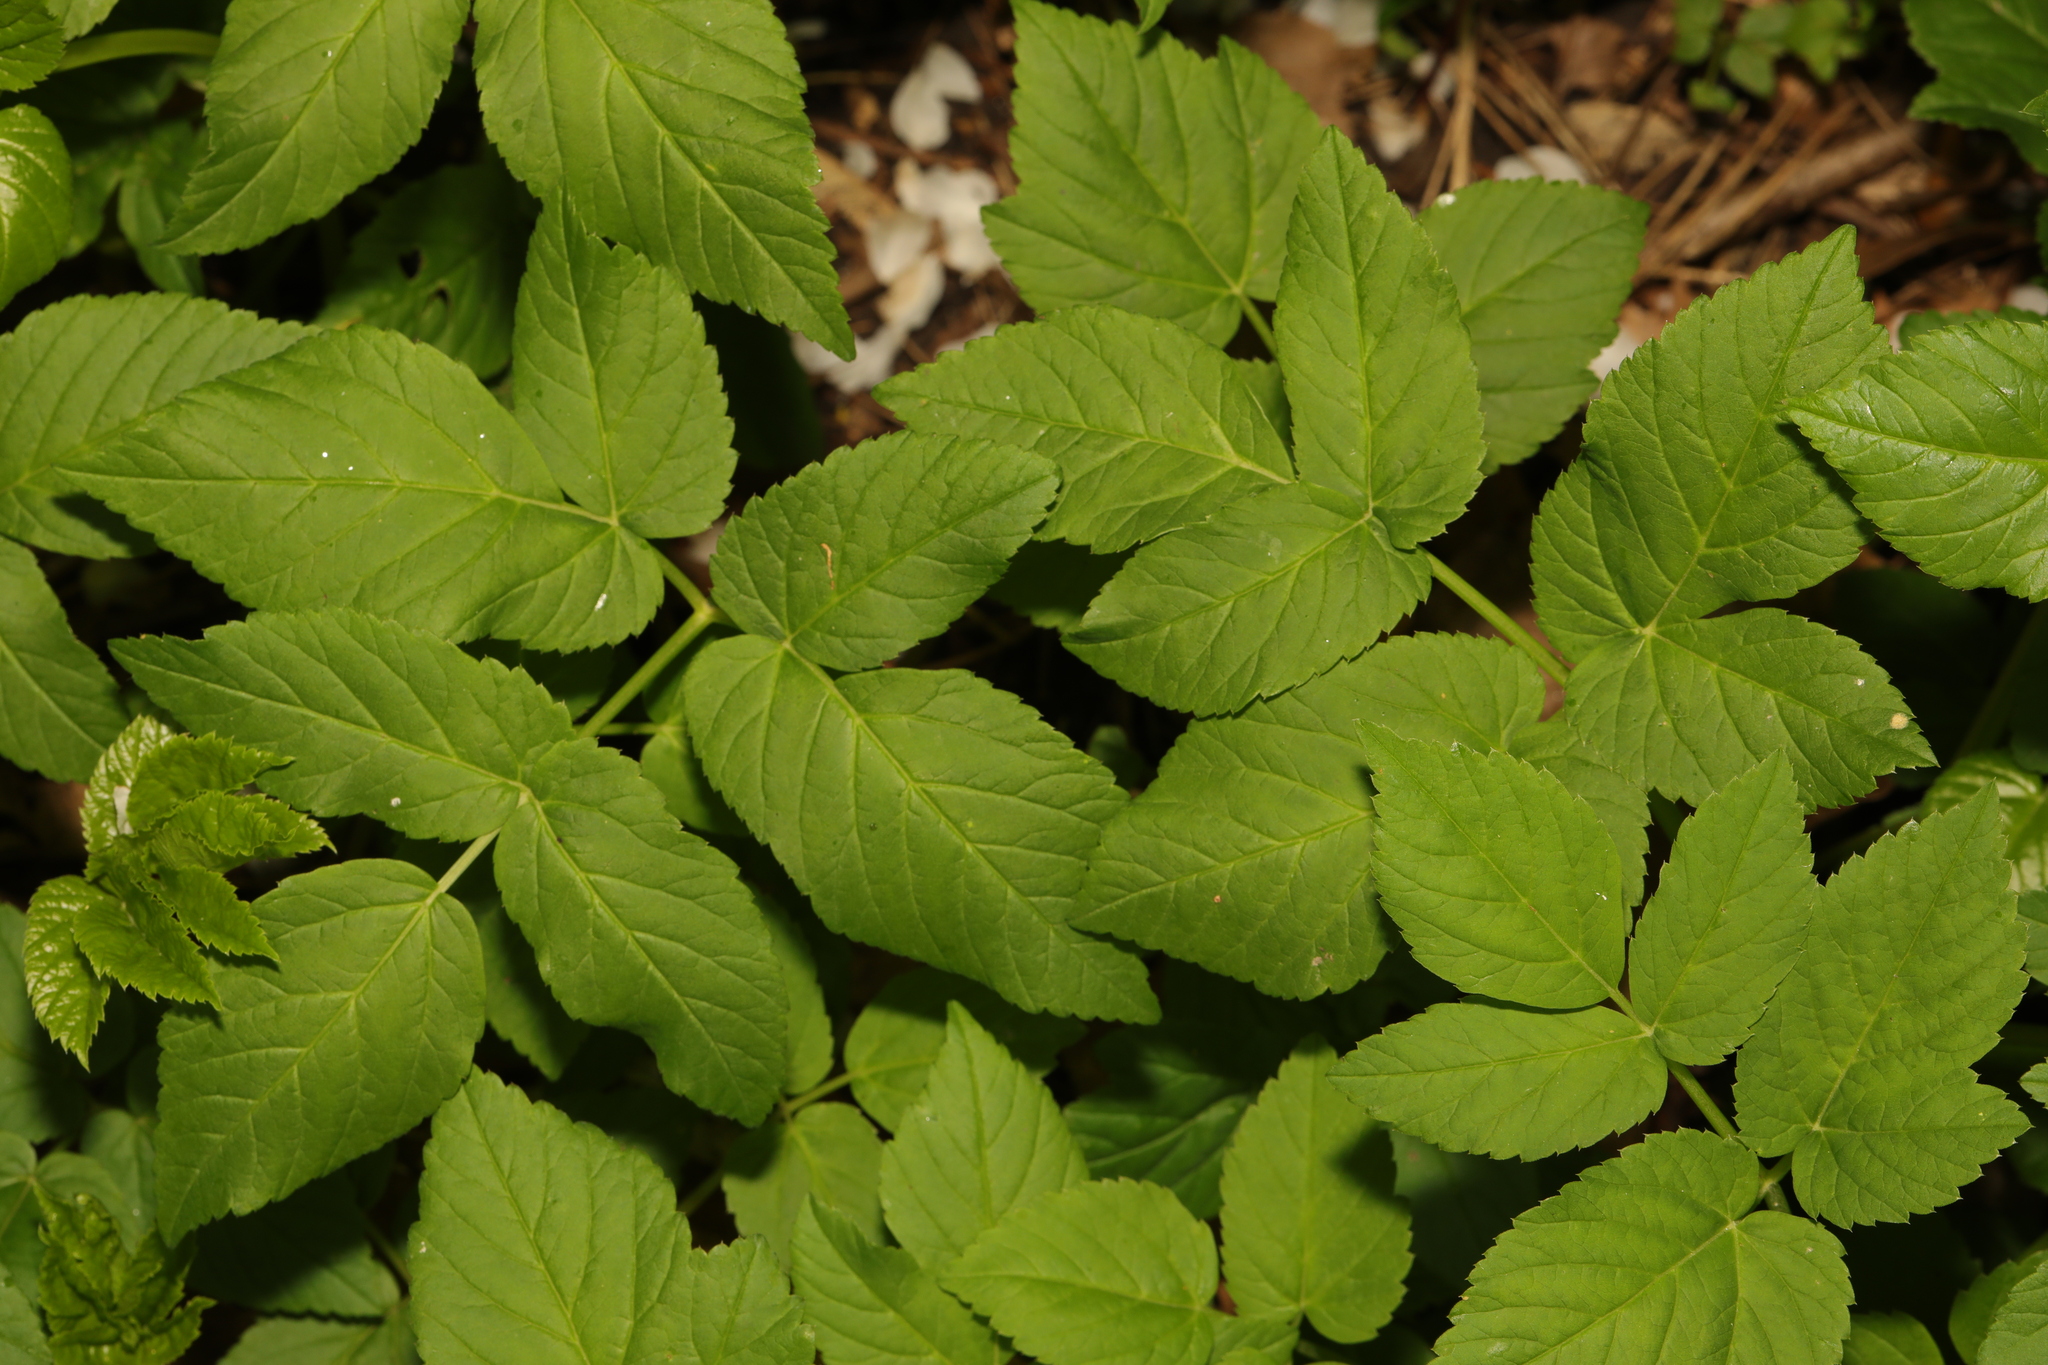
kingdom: Plantae
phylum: Tracheophyta
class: Magnoliopsida
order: Apiales
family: Apiaceae
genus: Aegopodium
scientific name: Aegopodium podagraria
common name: Ground-elder
